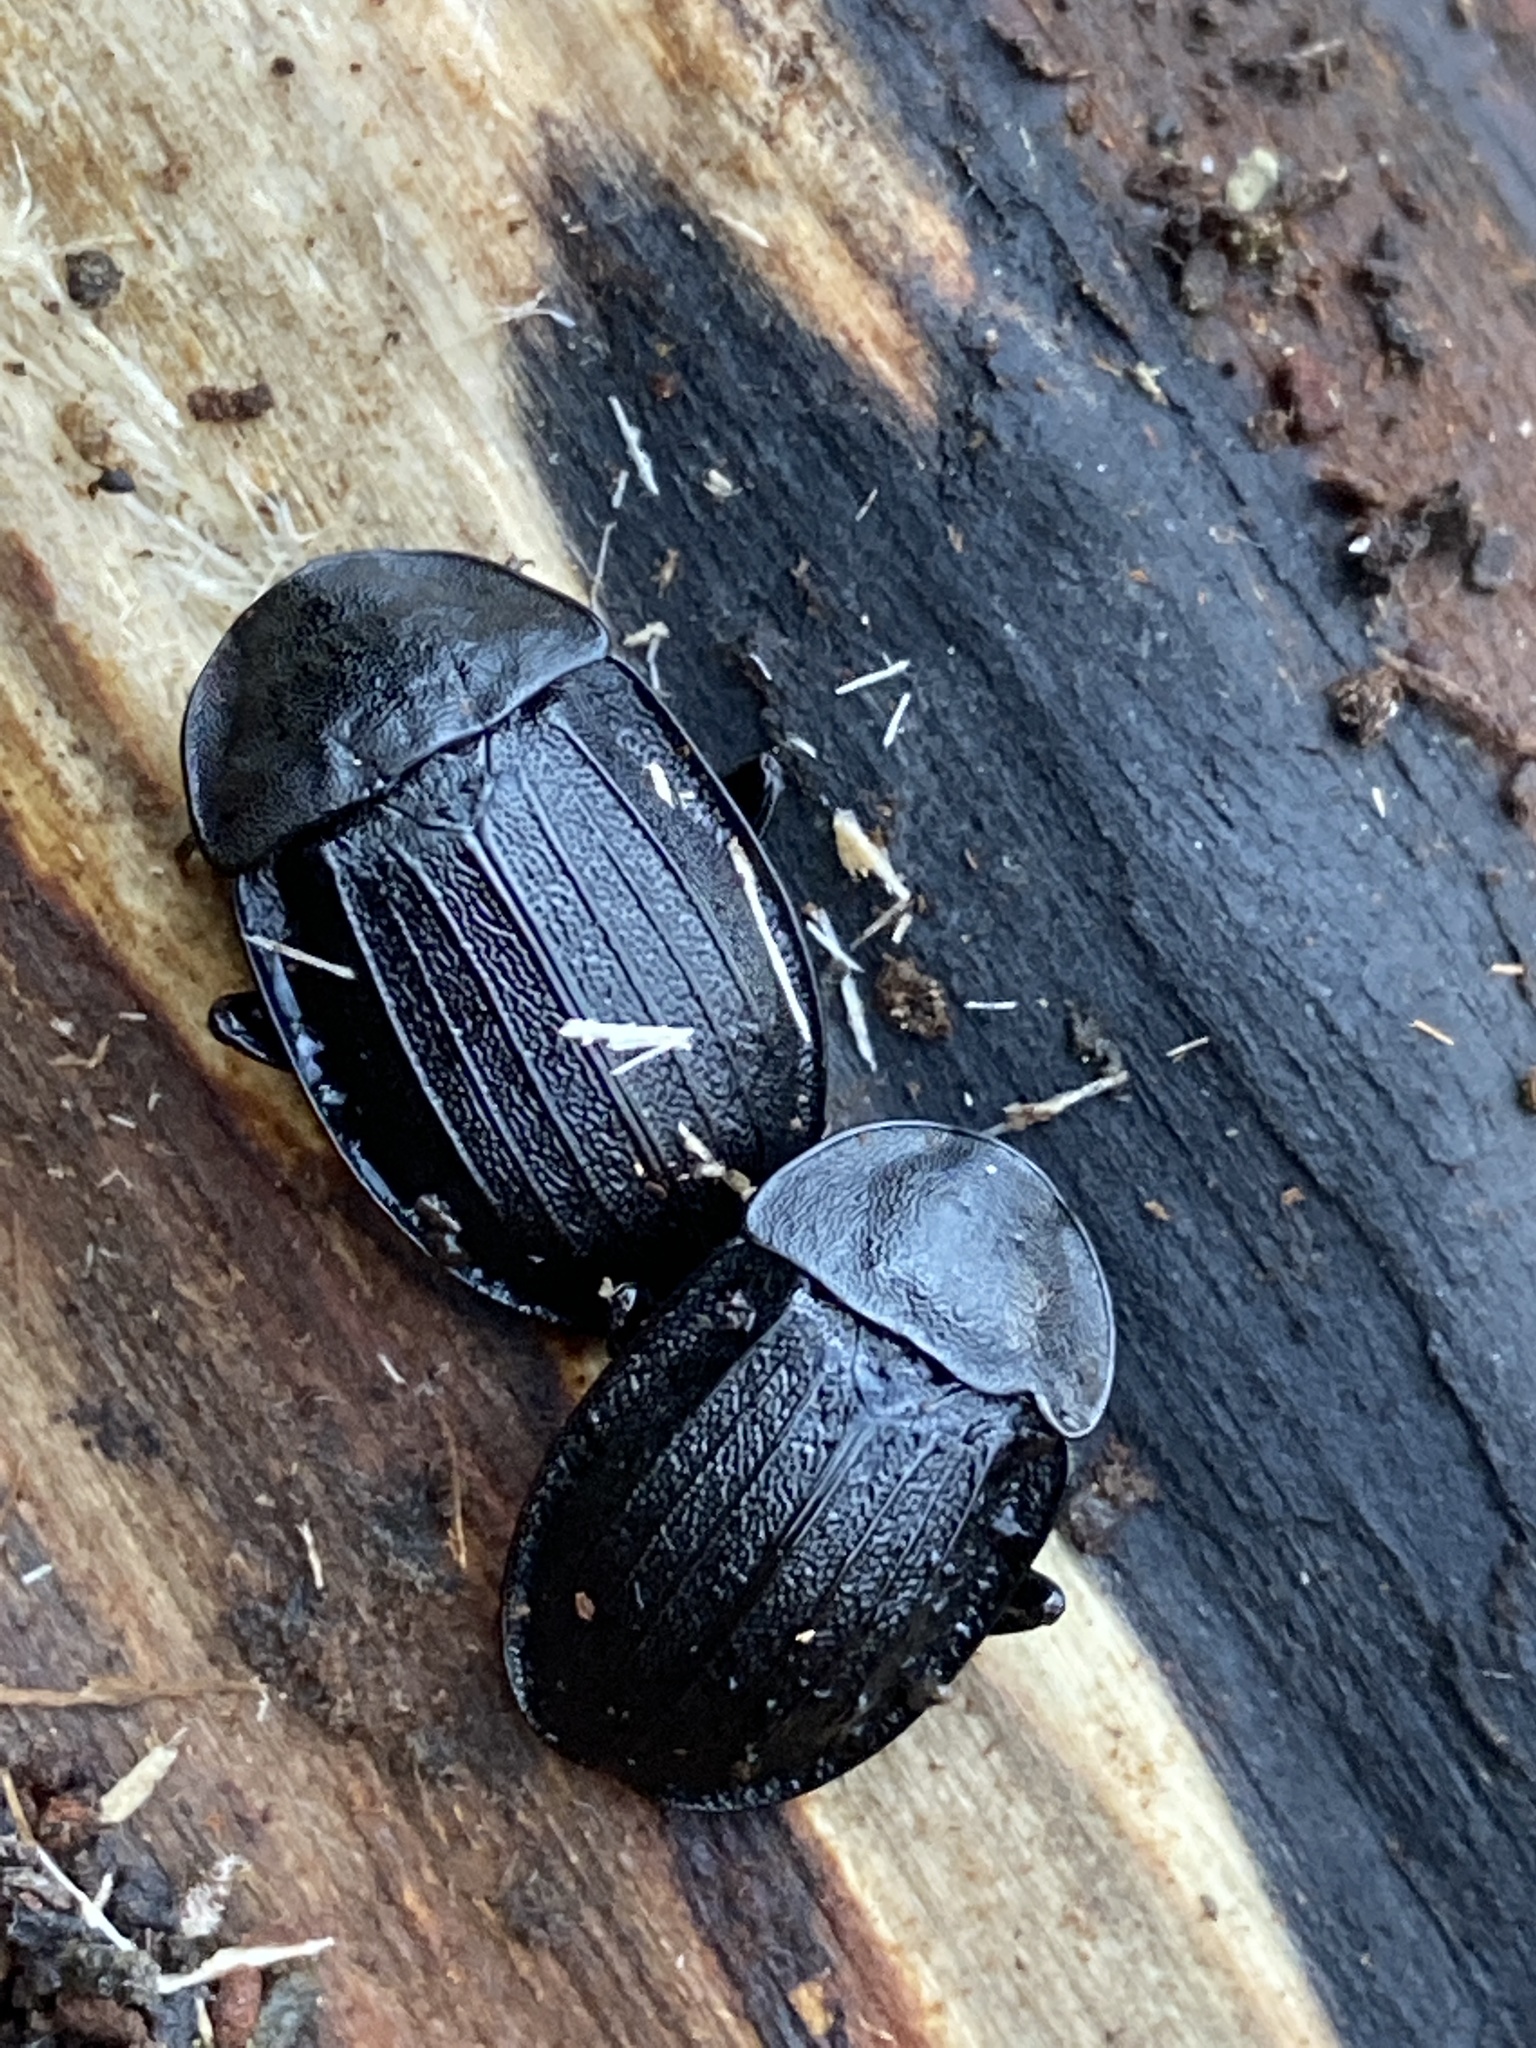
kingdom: Animalia
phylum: Arthropoda
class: Insecta
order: Coleoptera
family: Staphylinidae
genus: Silpha
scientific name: Silpha atrata
